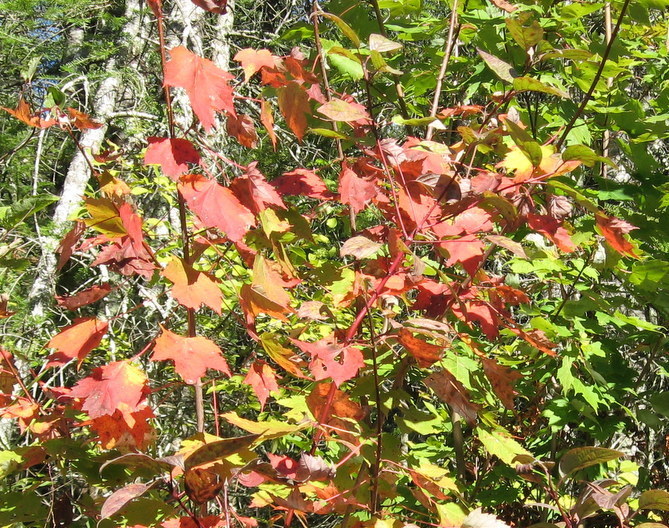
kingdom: Plantae
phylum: Tracheophyta
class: Magnoliopsida
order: Sapindales
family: Sapindaceae
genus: Acer
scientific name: Acer rubrum
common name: Red maple
